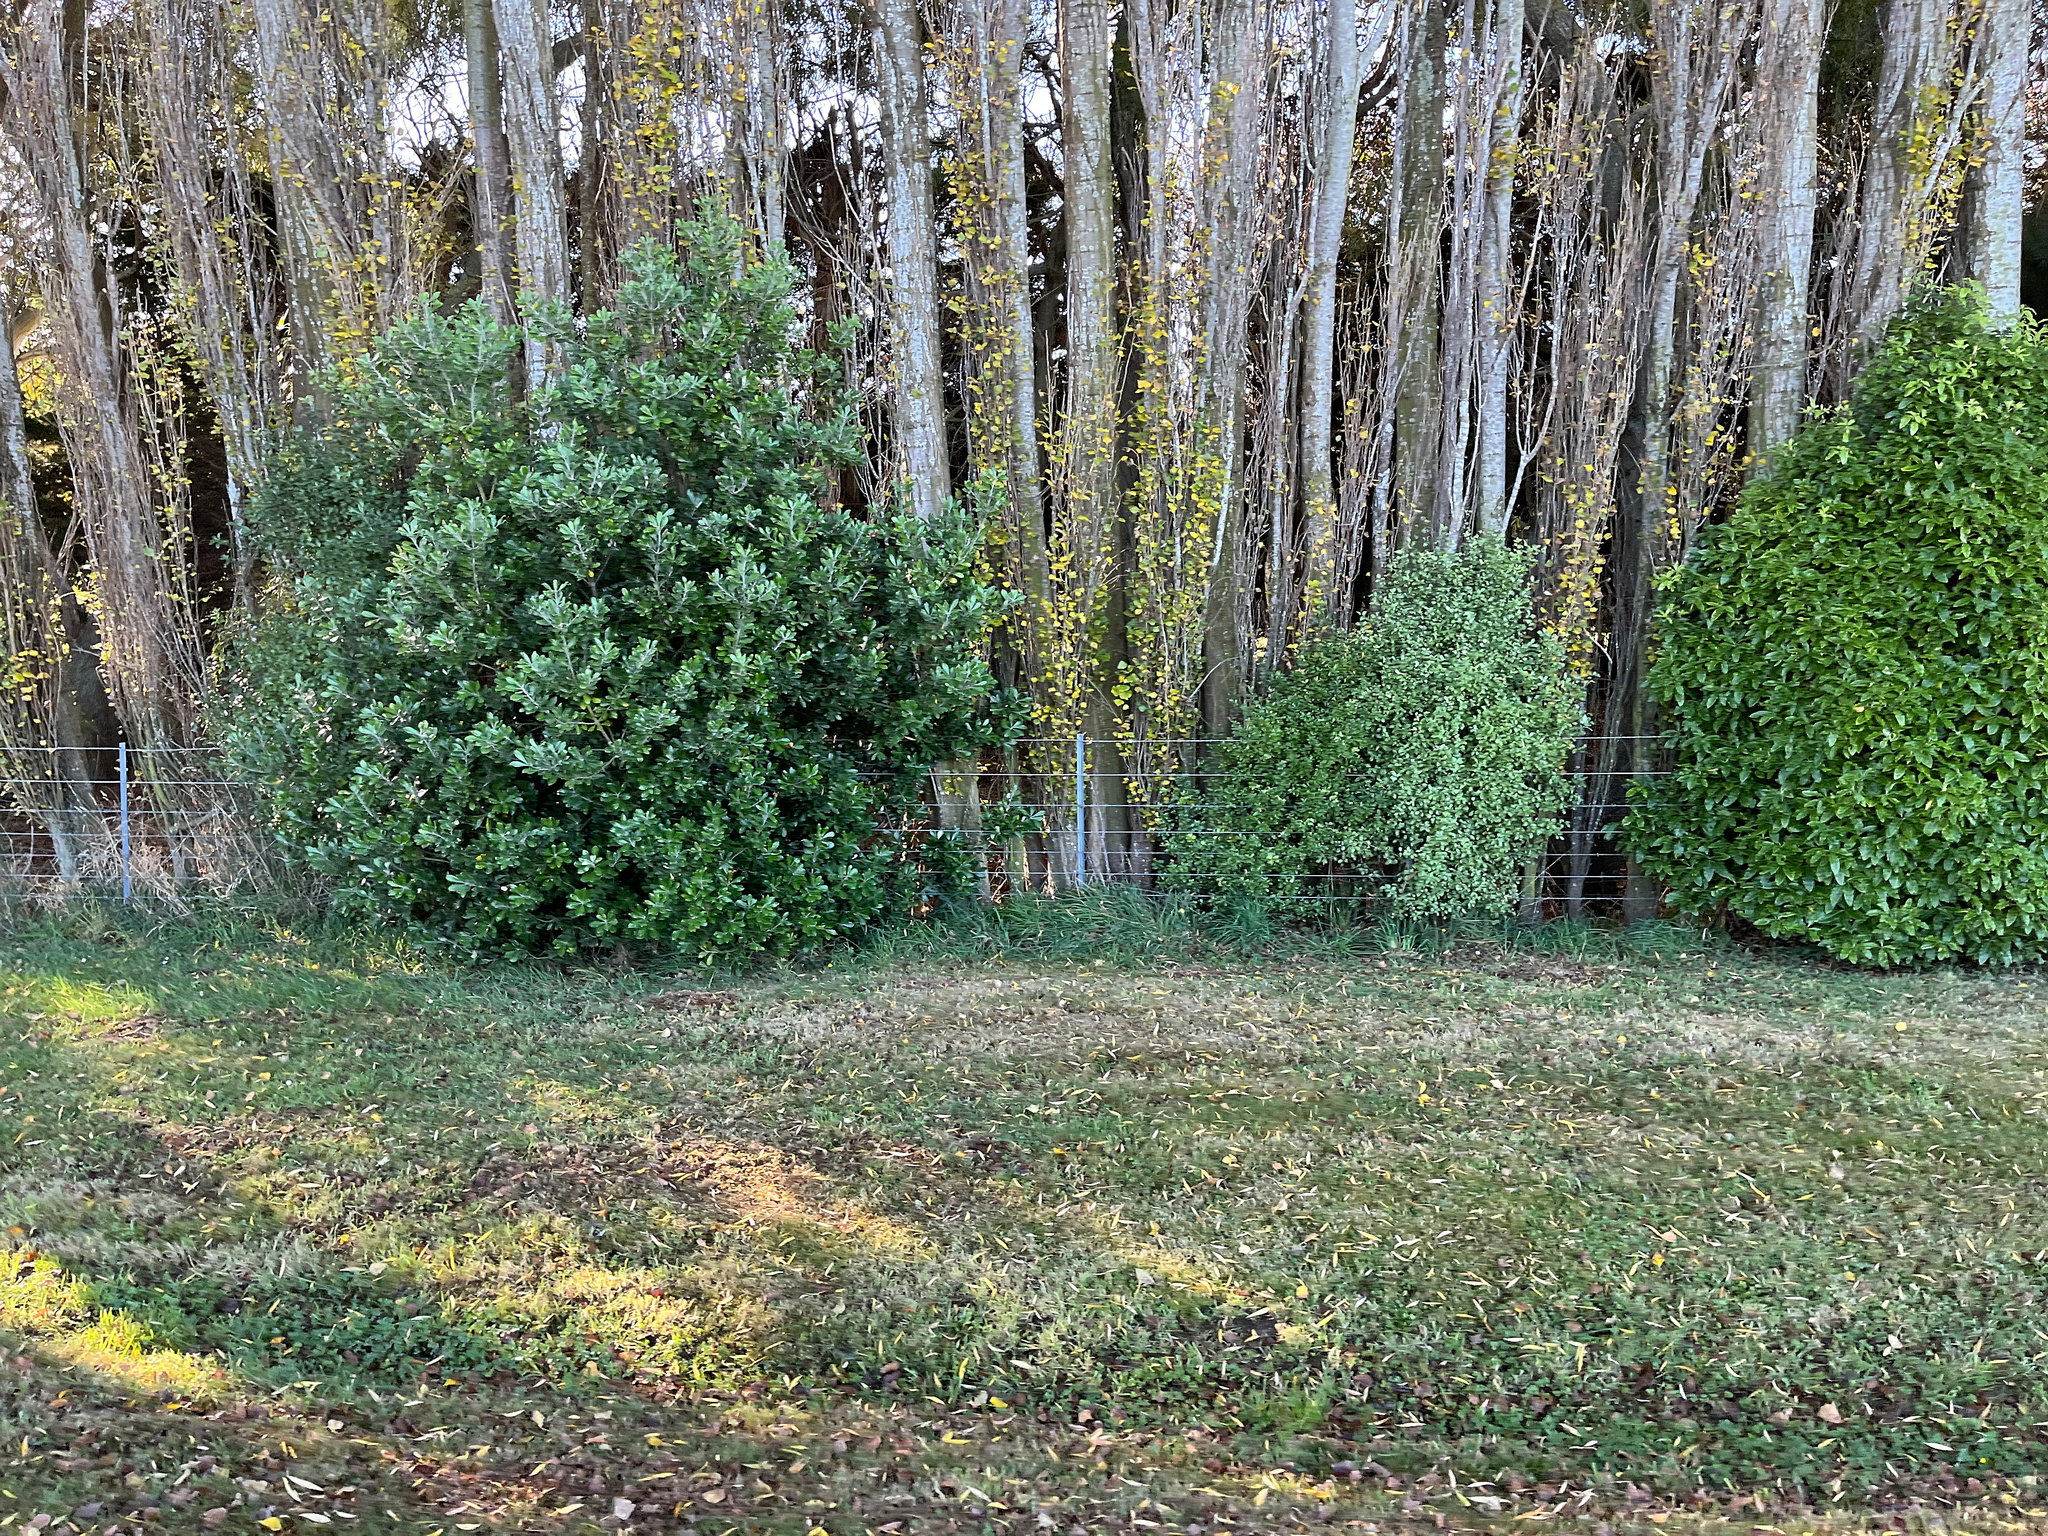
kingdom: Plantae
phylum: Tracheophyta
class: Magnoliopsida
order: Apiales
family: Pittosporaceae
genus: Pittosporum
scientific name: Pittosporum crassifolium
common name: Karo
